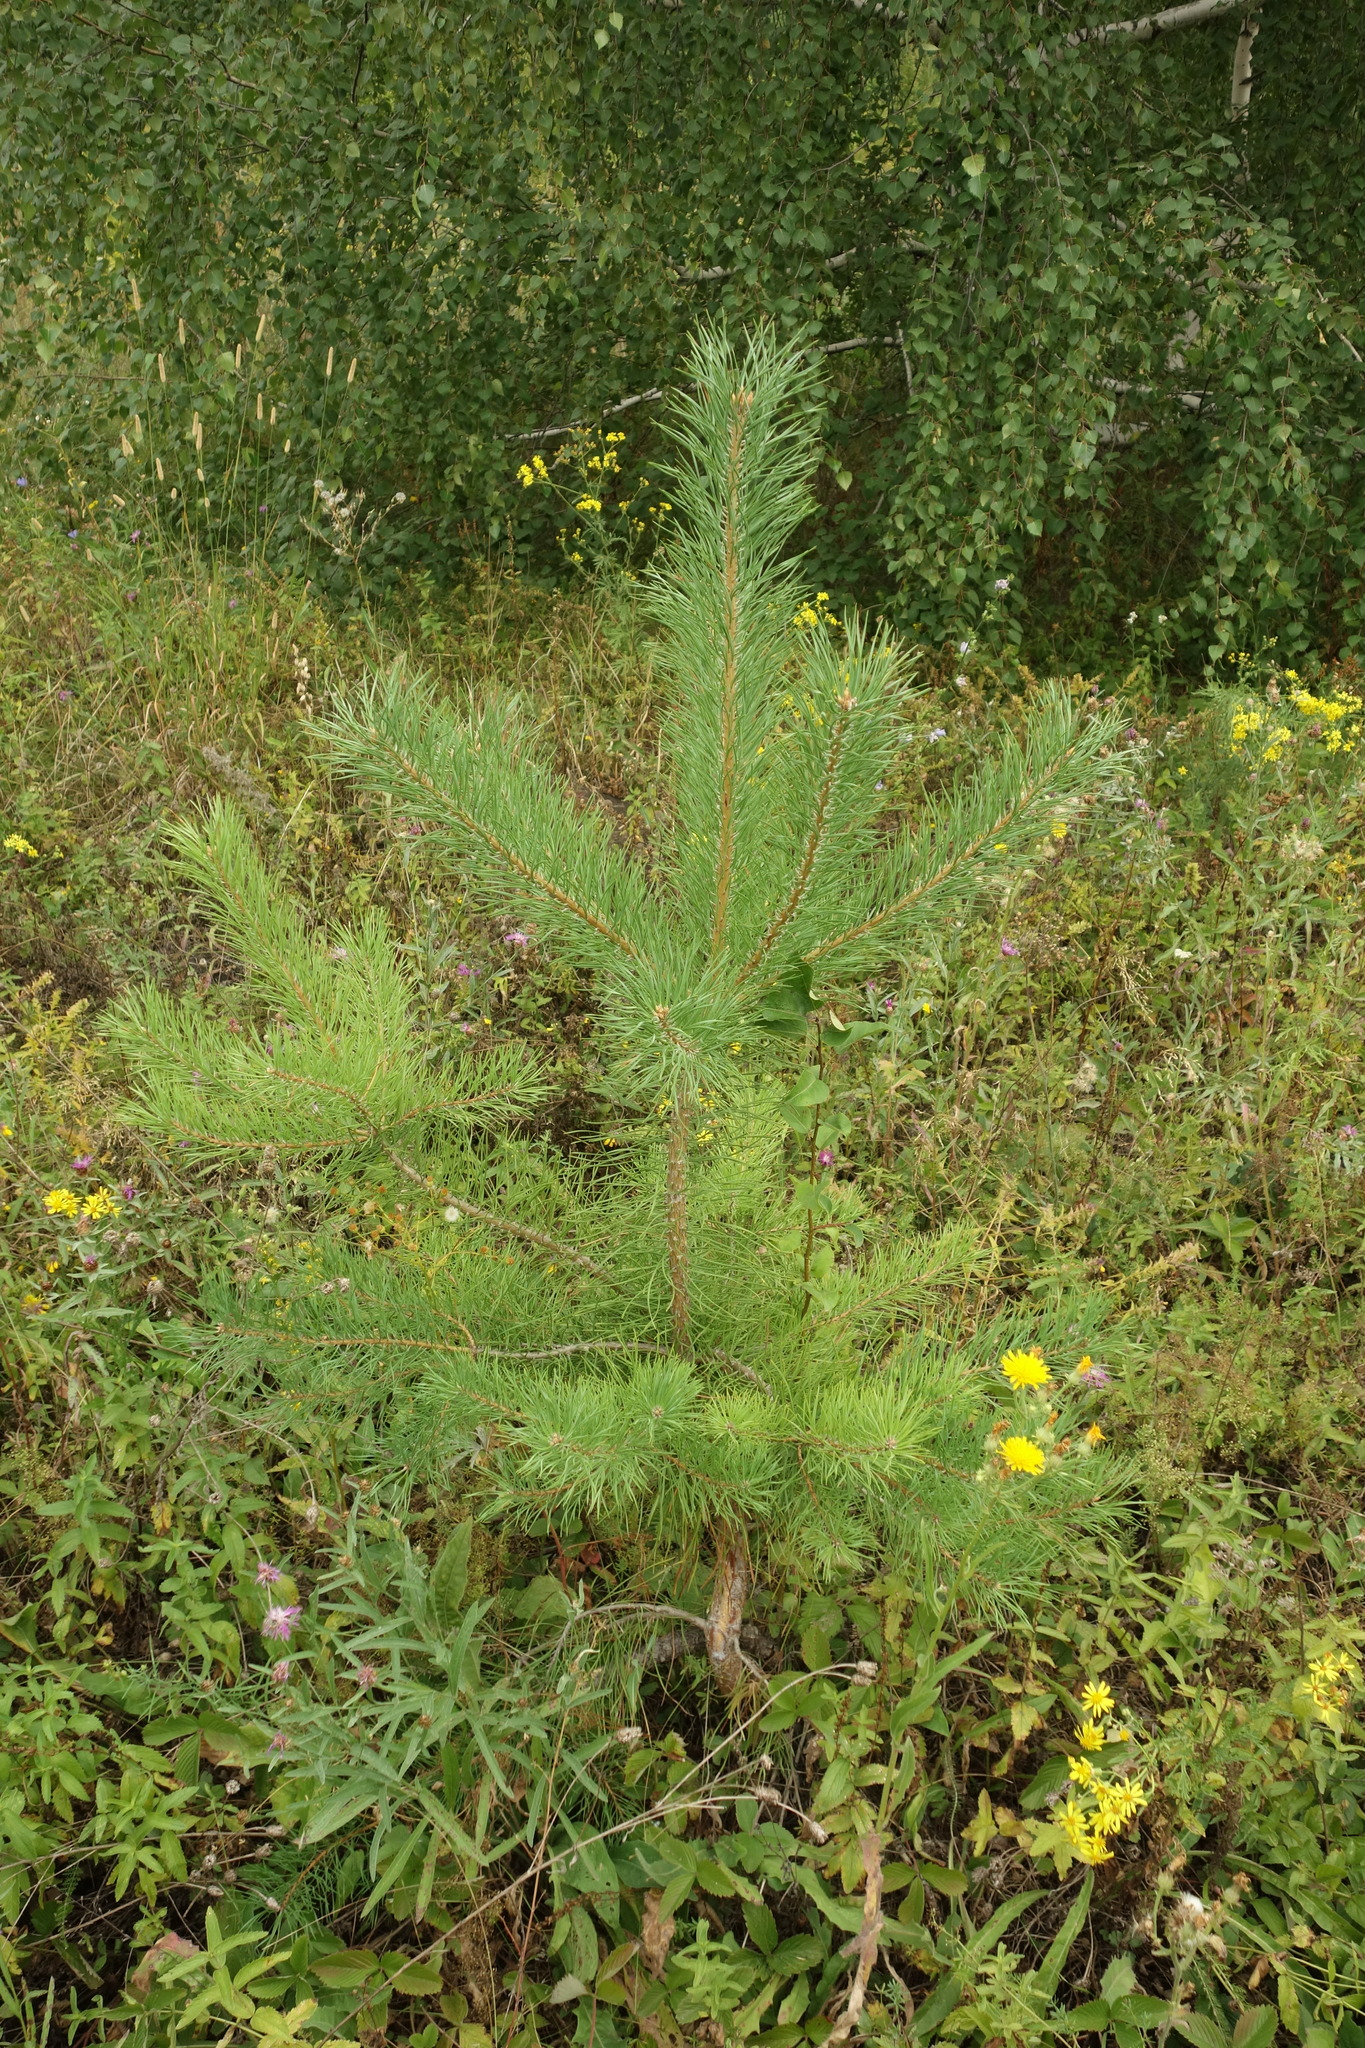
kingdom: Plantae
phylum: Tracheophyta
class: Pinopsida
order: Pinales
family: Pinaceae
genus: Pinus
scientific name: Pinus sylvestris
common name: Scots pine
